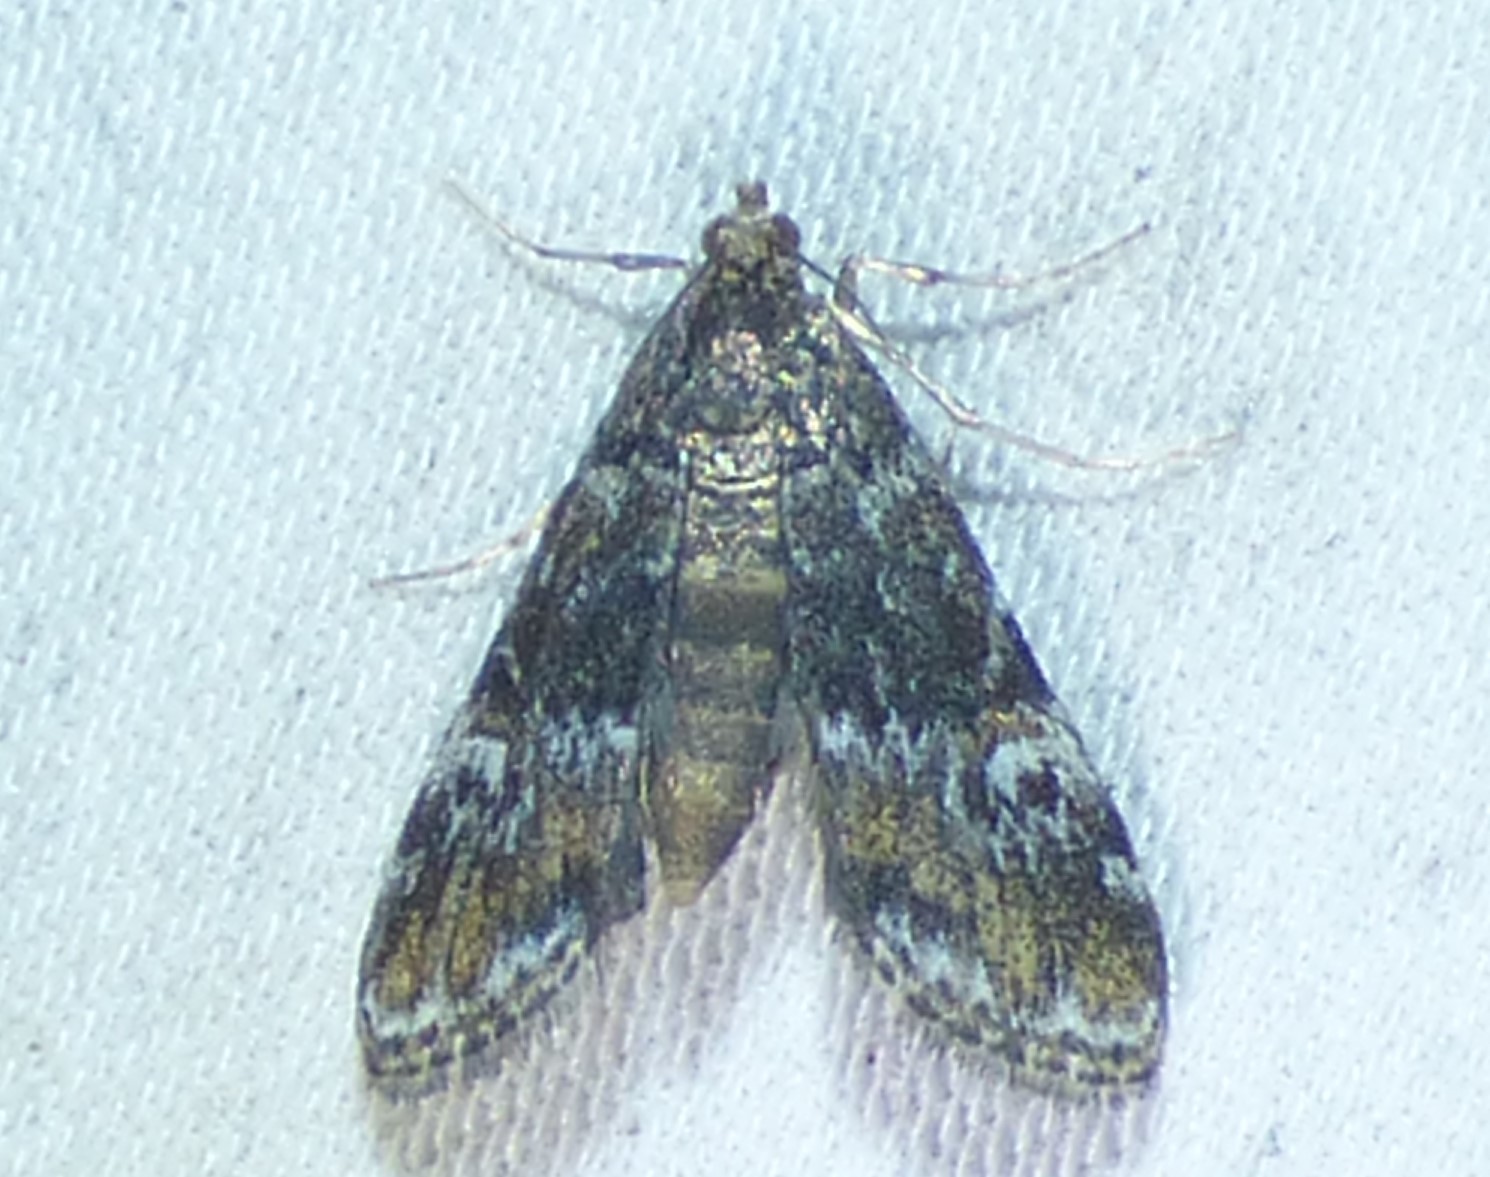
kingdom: Animalia
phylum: Arthropoda
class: Insecta
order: Lepidoptera
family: Crambidae
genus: Elophila
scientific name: Elophila obliteralis
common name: Waterlily leafcutter moth
